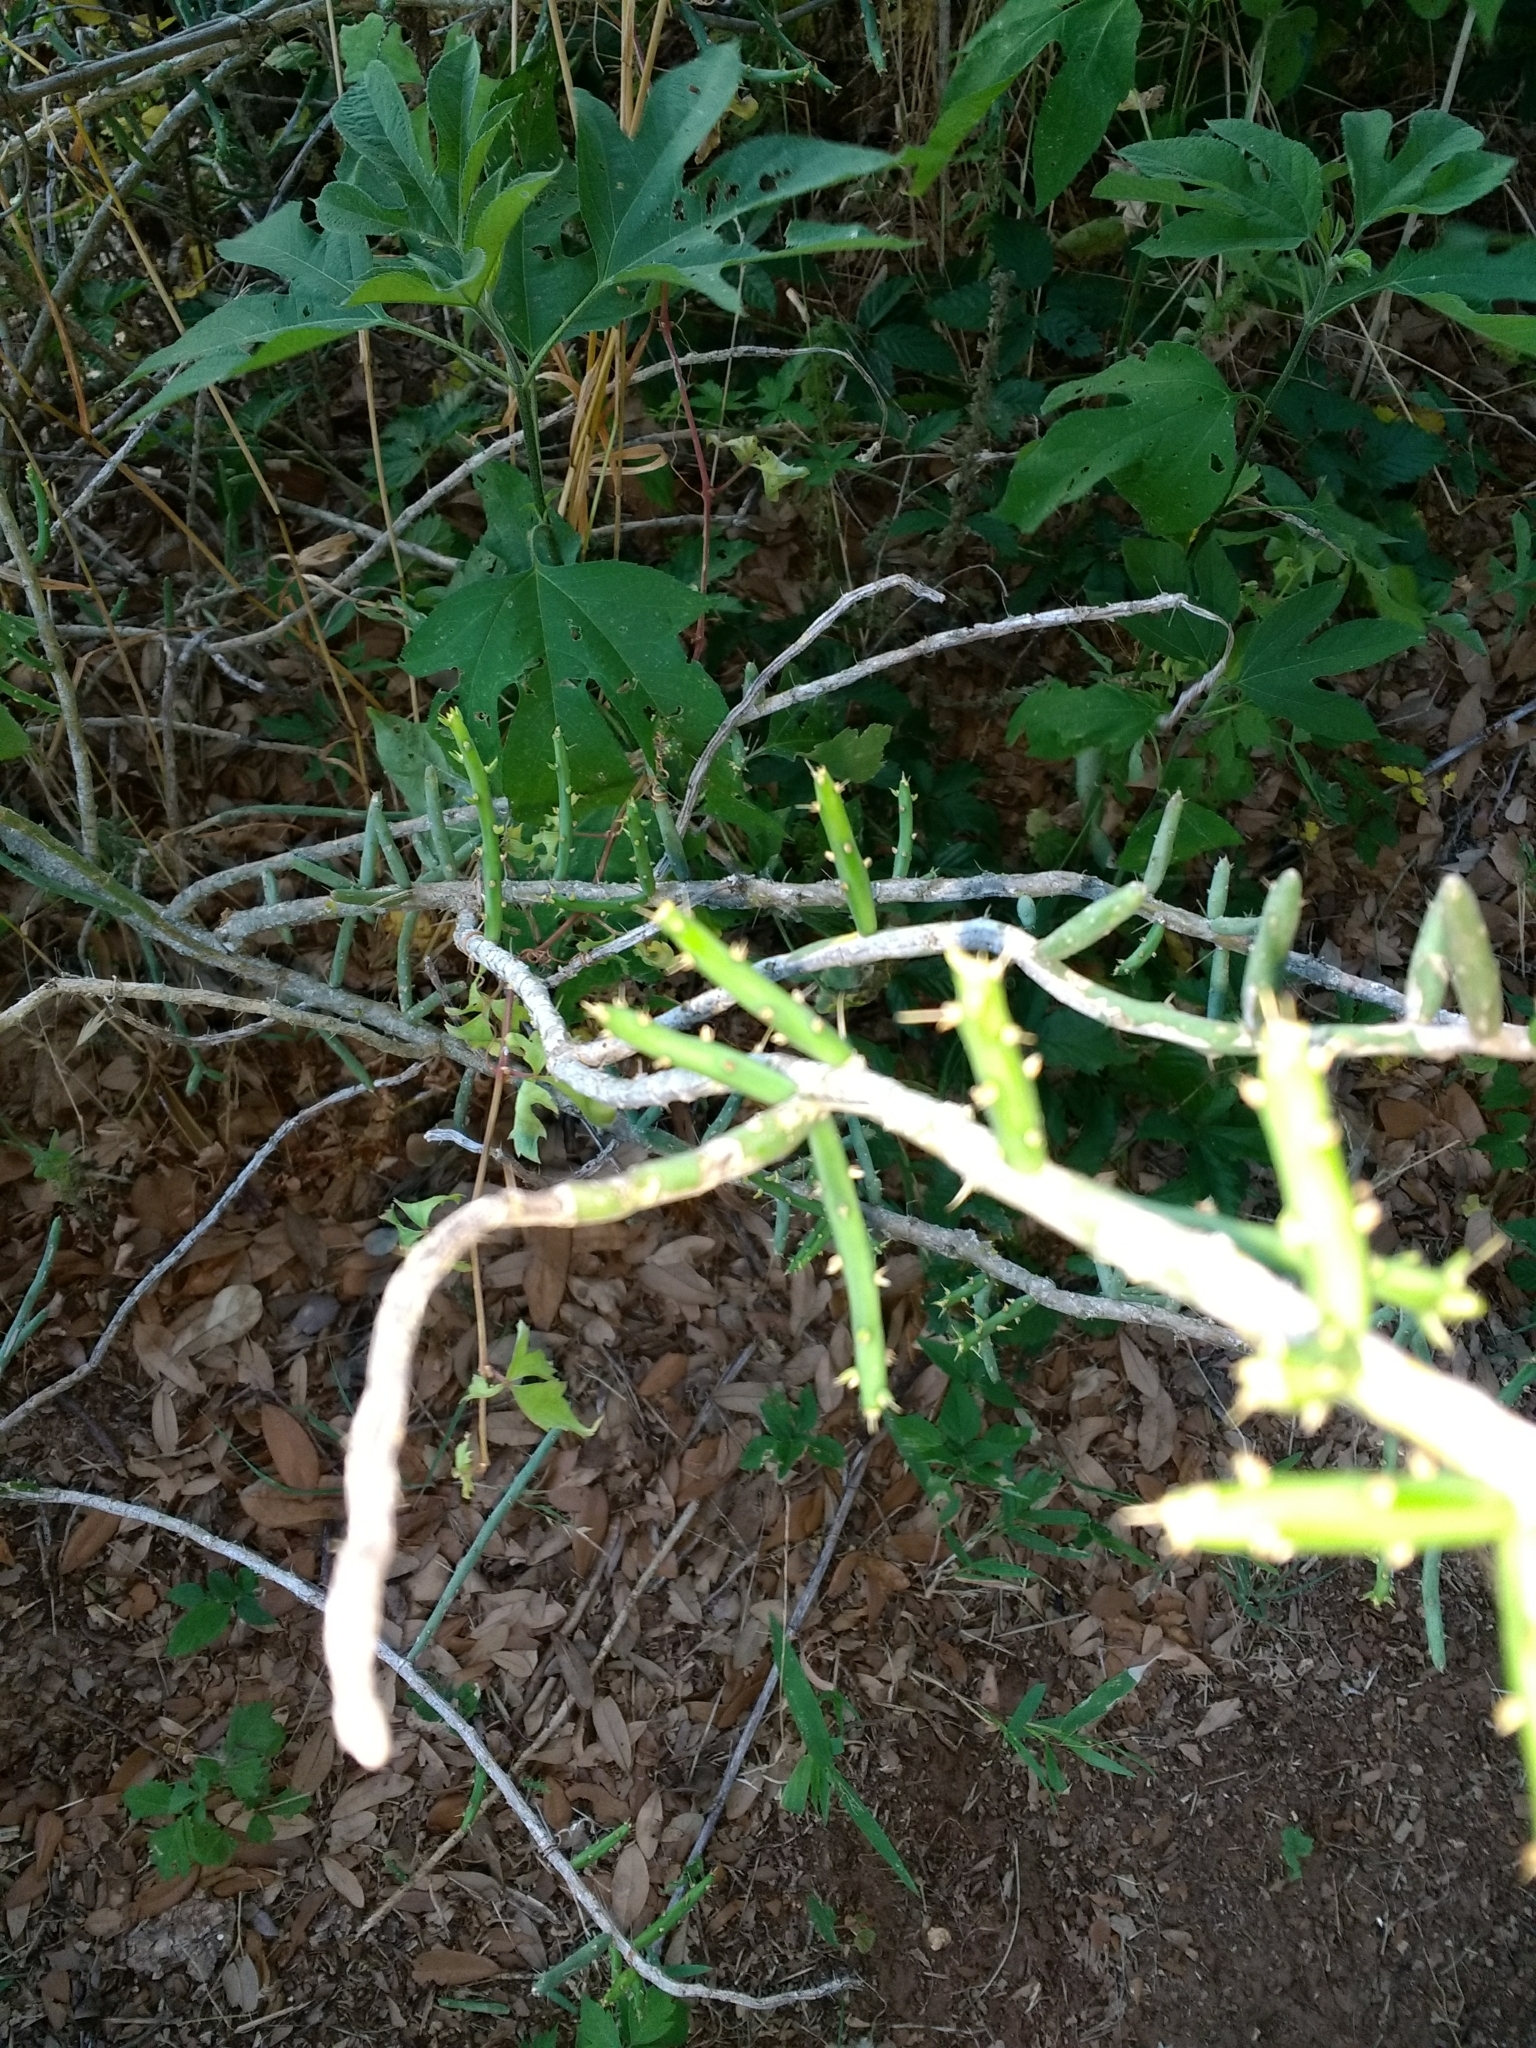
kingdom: Plantae
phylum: Tracheophyta
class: Magnoliopsida
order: Caryophyllales
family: Cactaceae
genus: Cylindropuntia
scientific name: Cylindropuntia leptocaulis
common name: Christmas cactus
